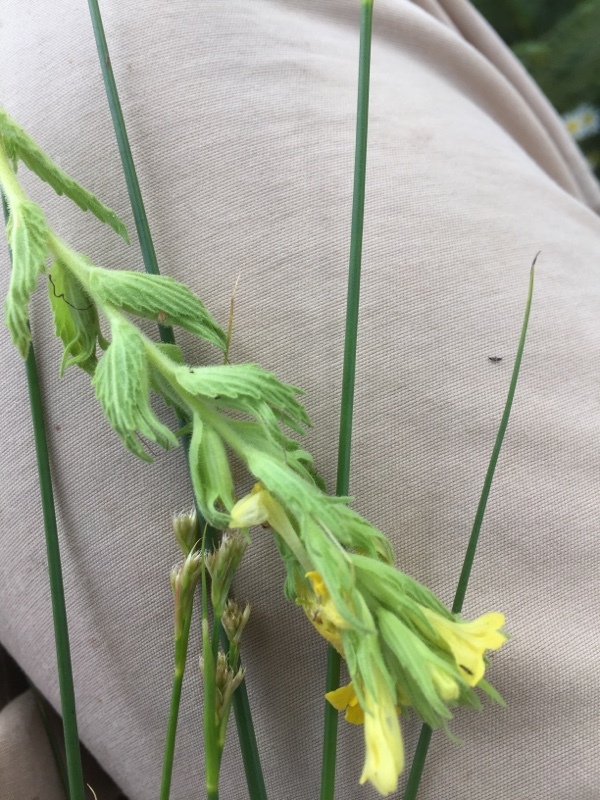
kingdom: Plantae
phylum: Tracheophyta
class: Magnoliopsida
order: Lamiales
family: Orobanchaceae
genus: Bellardia
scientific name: Bellardia viscosa
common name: Sticky parentucellia
